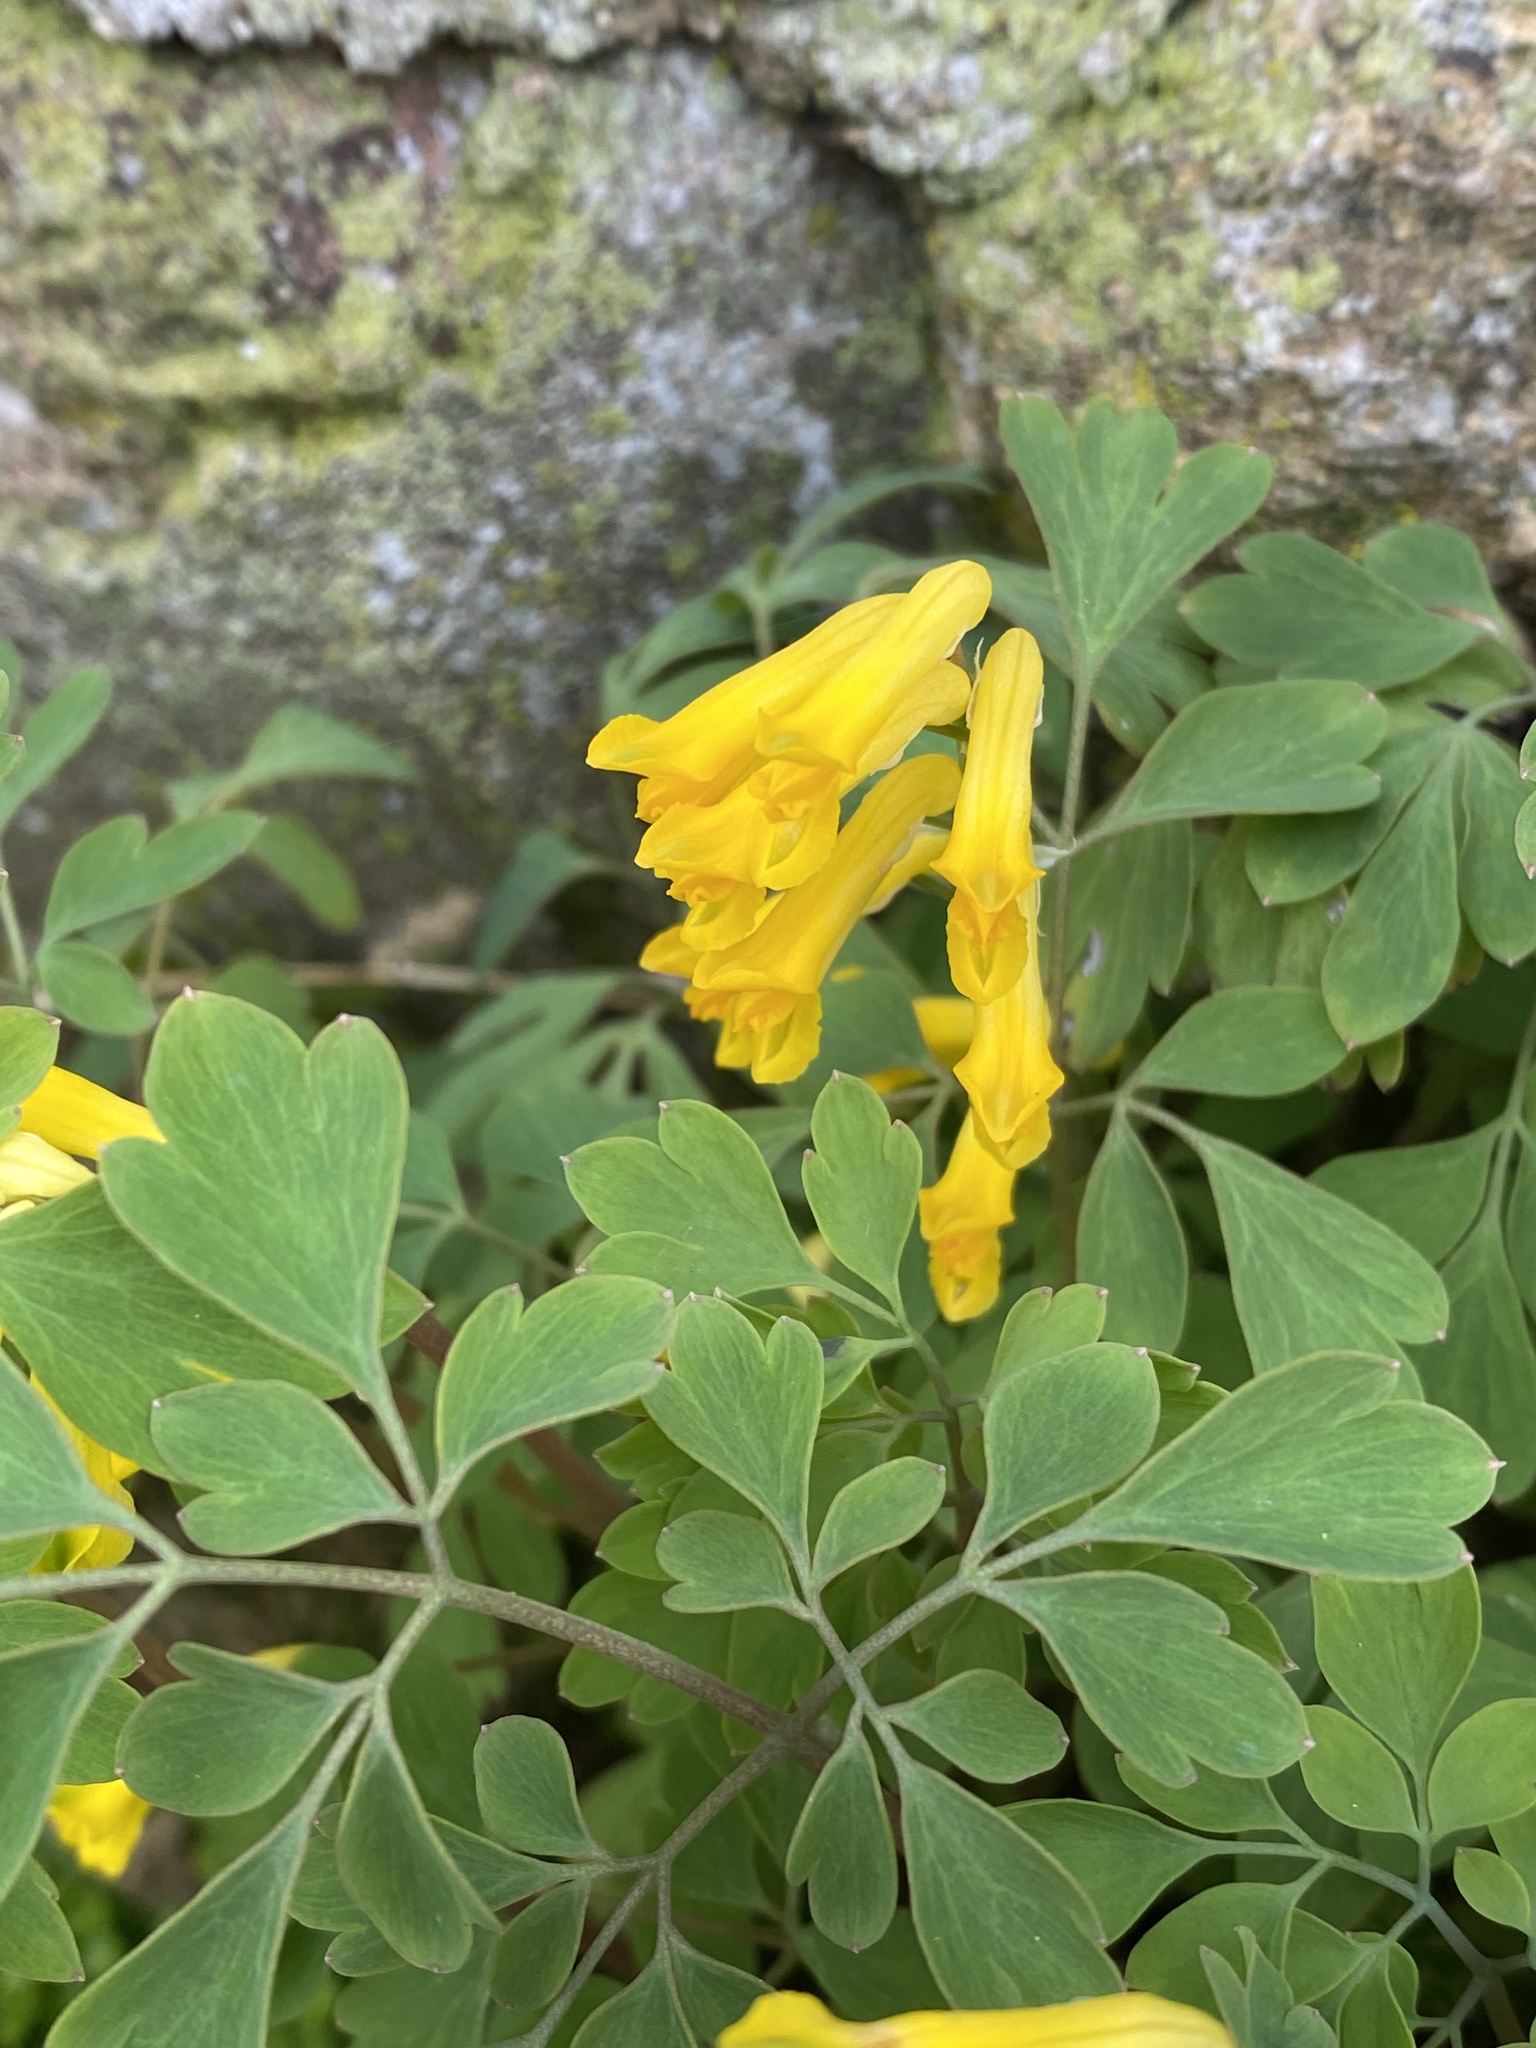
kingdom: Plantae
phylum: Tracheophyta
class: Magnoliopsida
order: Ranunculales
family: Papaveraceae
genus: Pseudofumaria
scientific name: Pseudofumaria lutea
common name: Yellow corydalis
